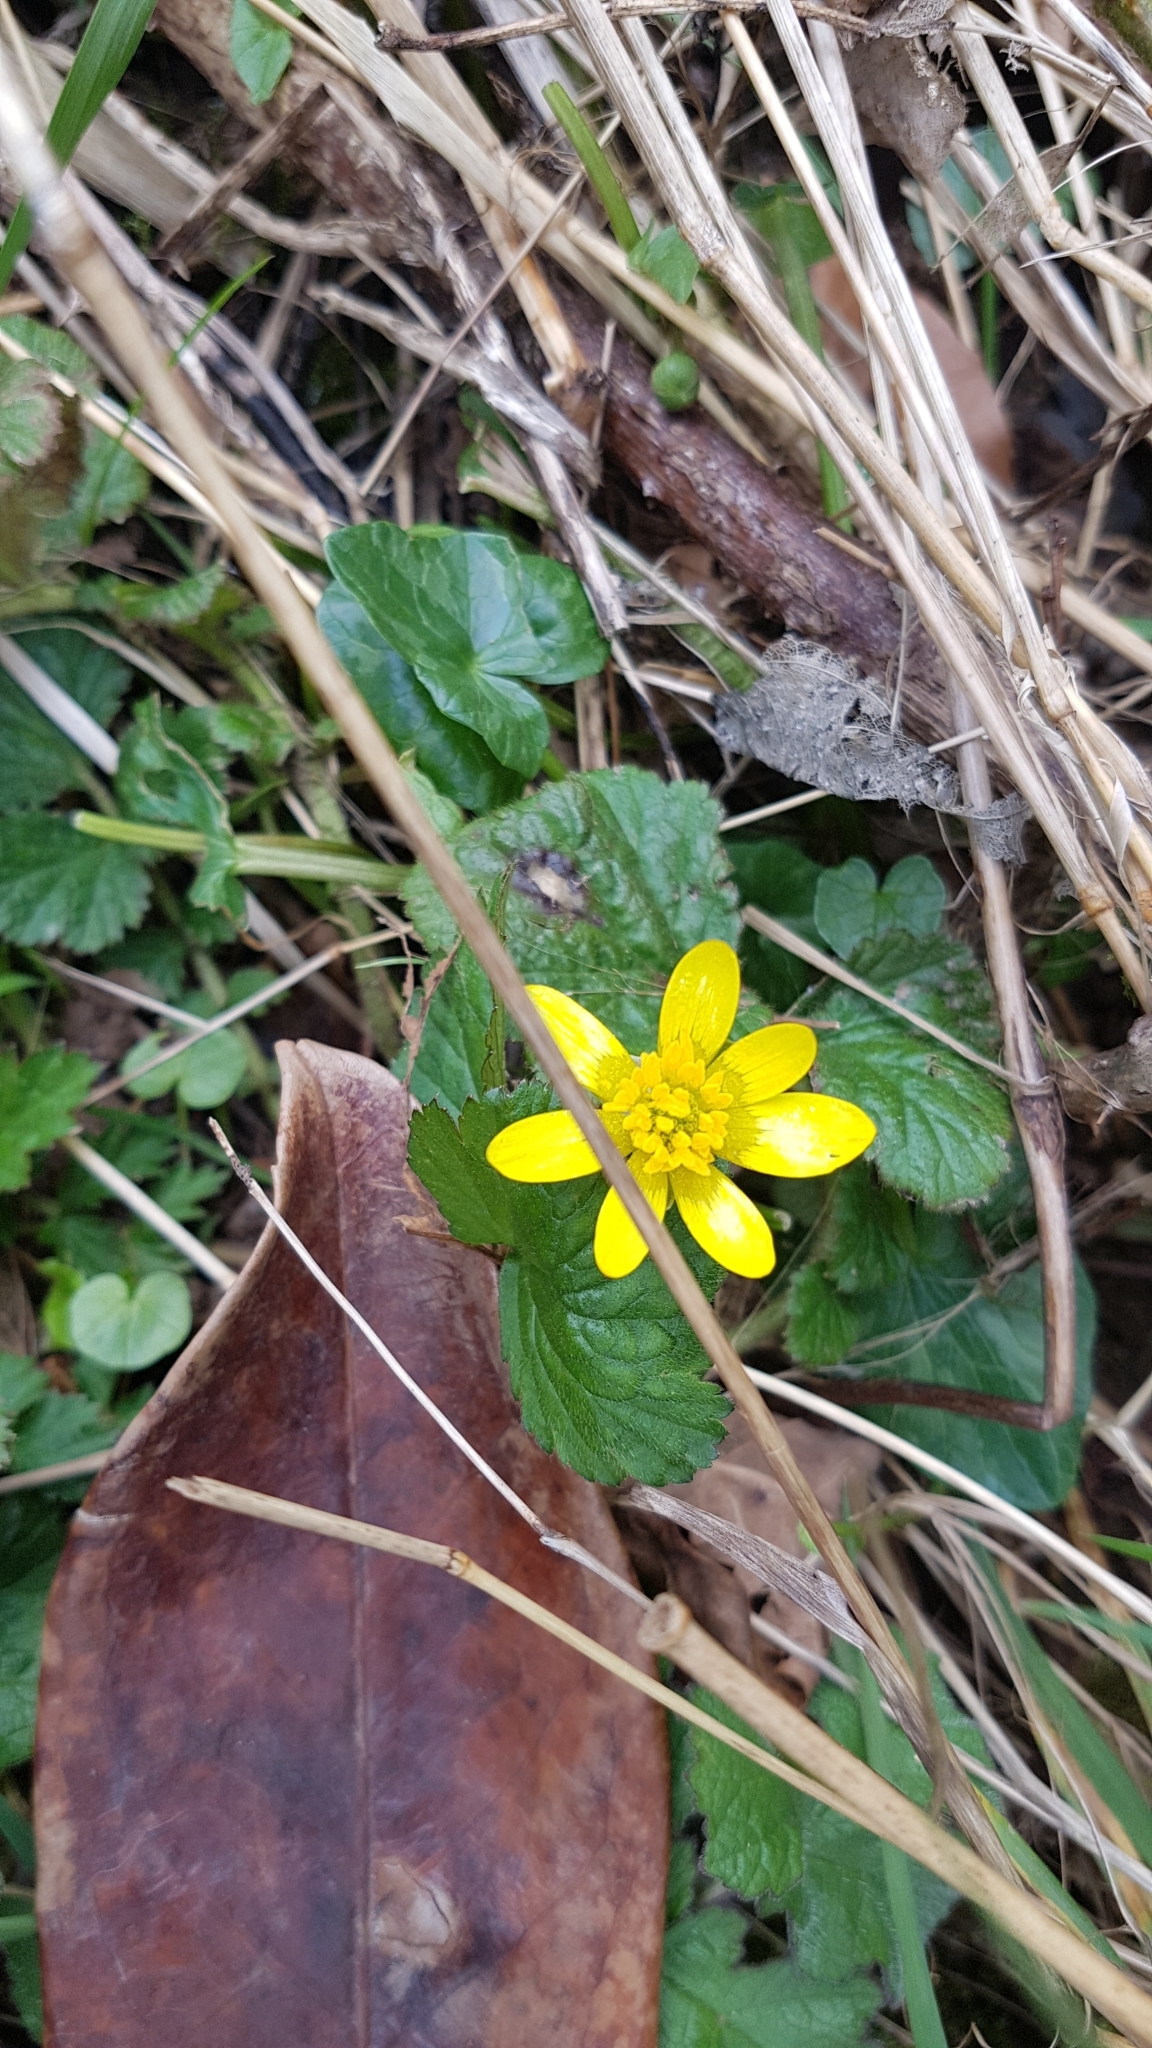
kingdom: Plantae
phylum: Tracheophyta
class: Magnoliopsida
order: Ranunculales
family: Ranunculaceae
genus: Ficaria
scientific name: Ficaria verna
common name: Lesser celandine
